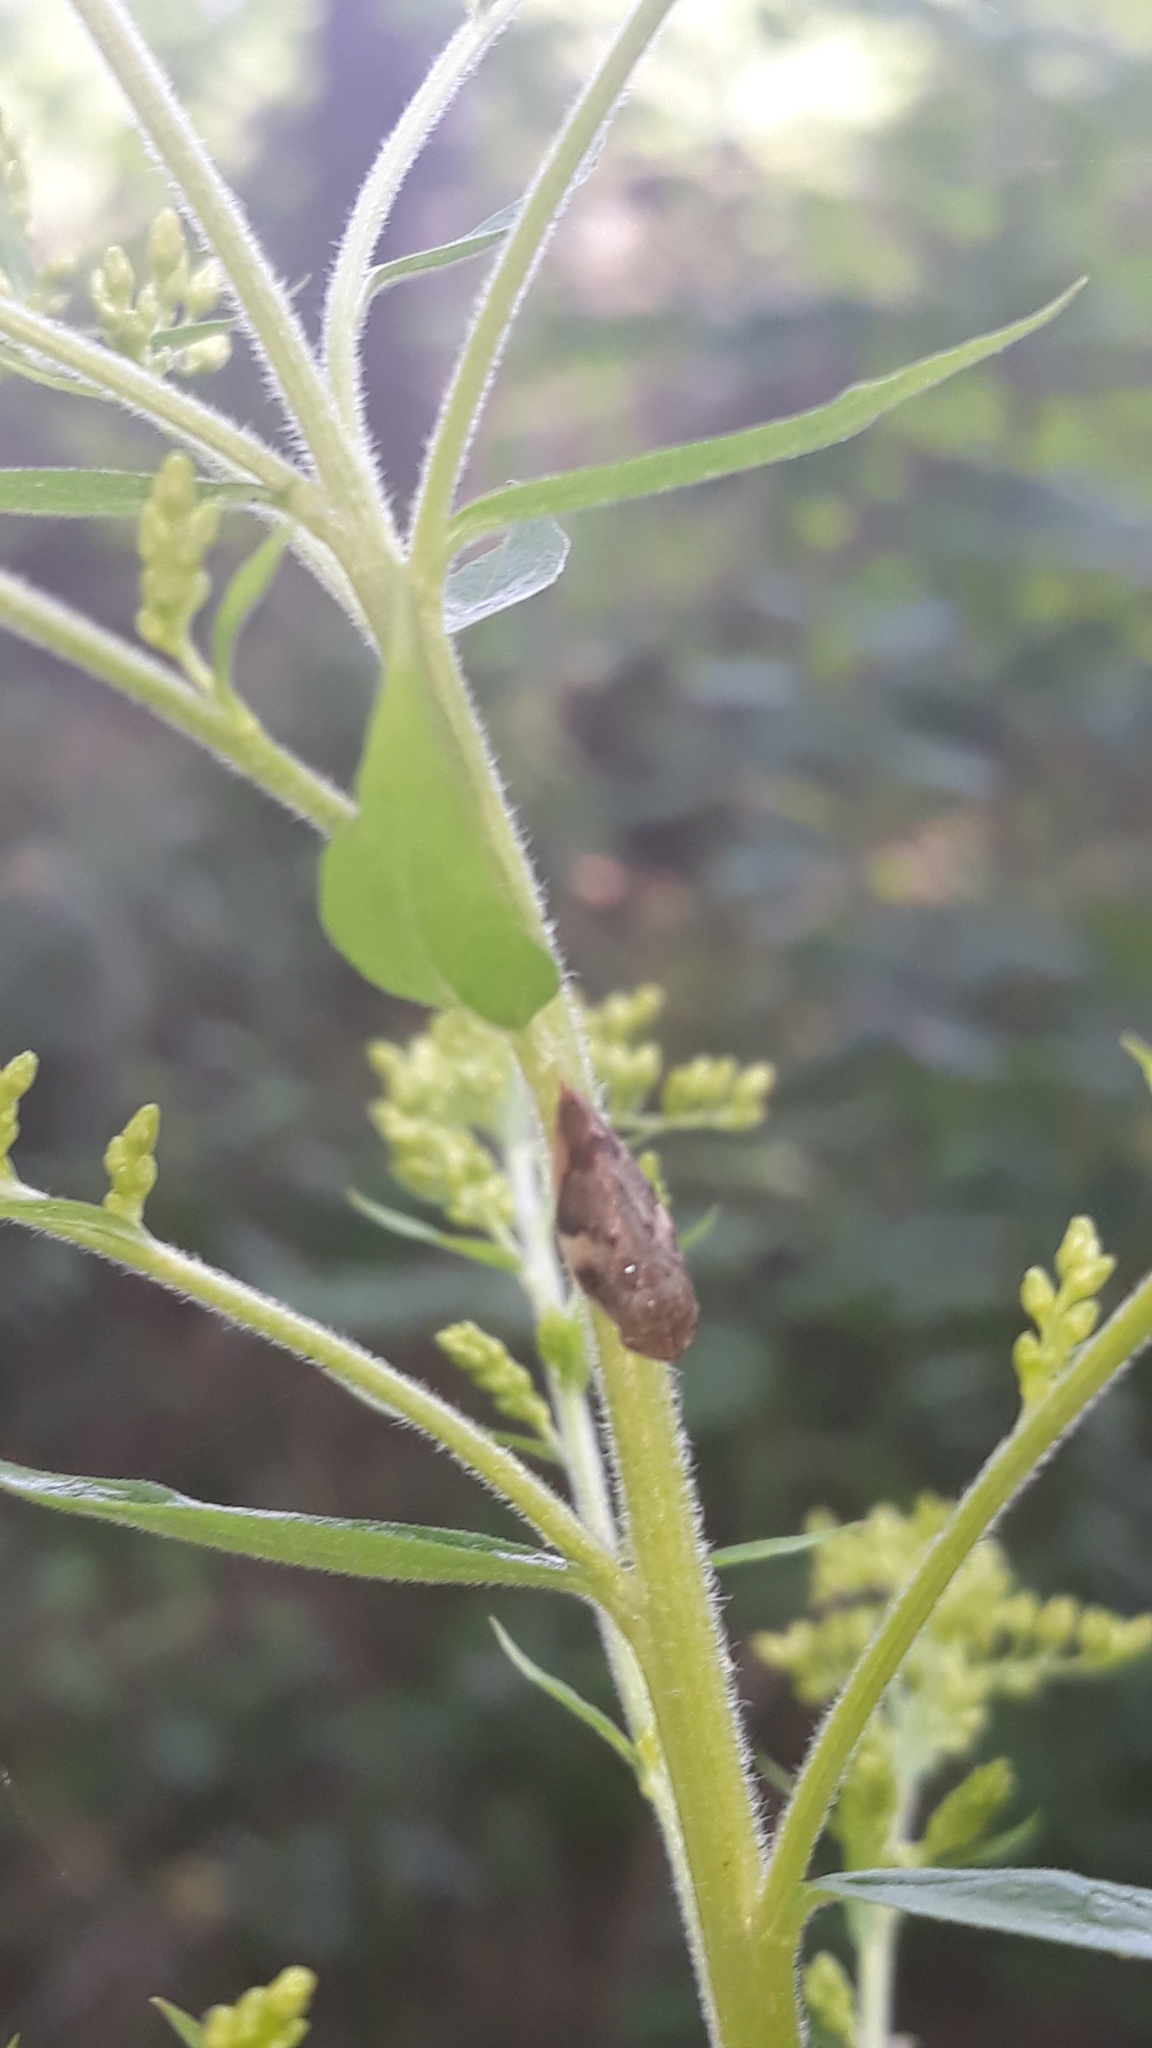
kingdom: Animalia
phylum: Arthropoda
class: Insecta
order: Hemiptera
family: Aphrophoridae
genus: Aphrophora
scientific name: Aphrophora alni
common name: European alder spittlebug
